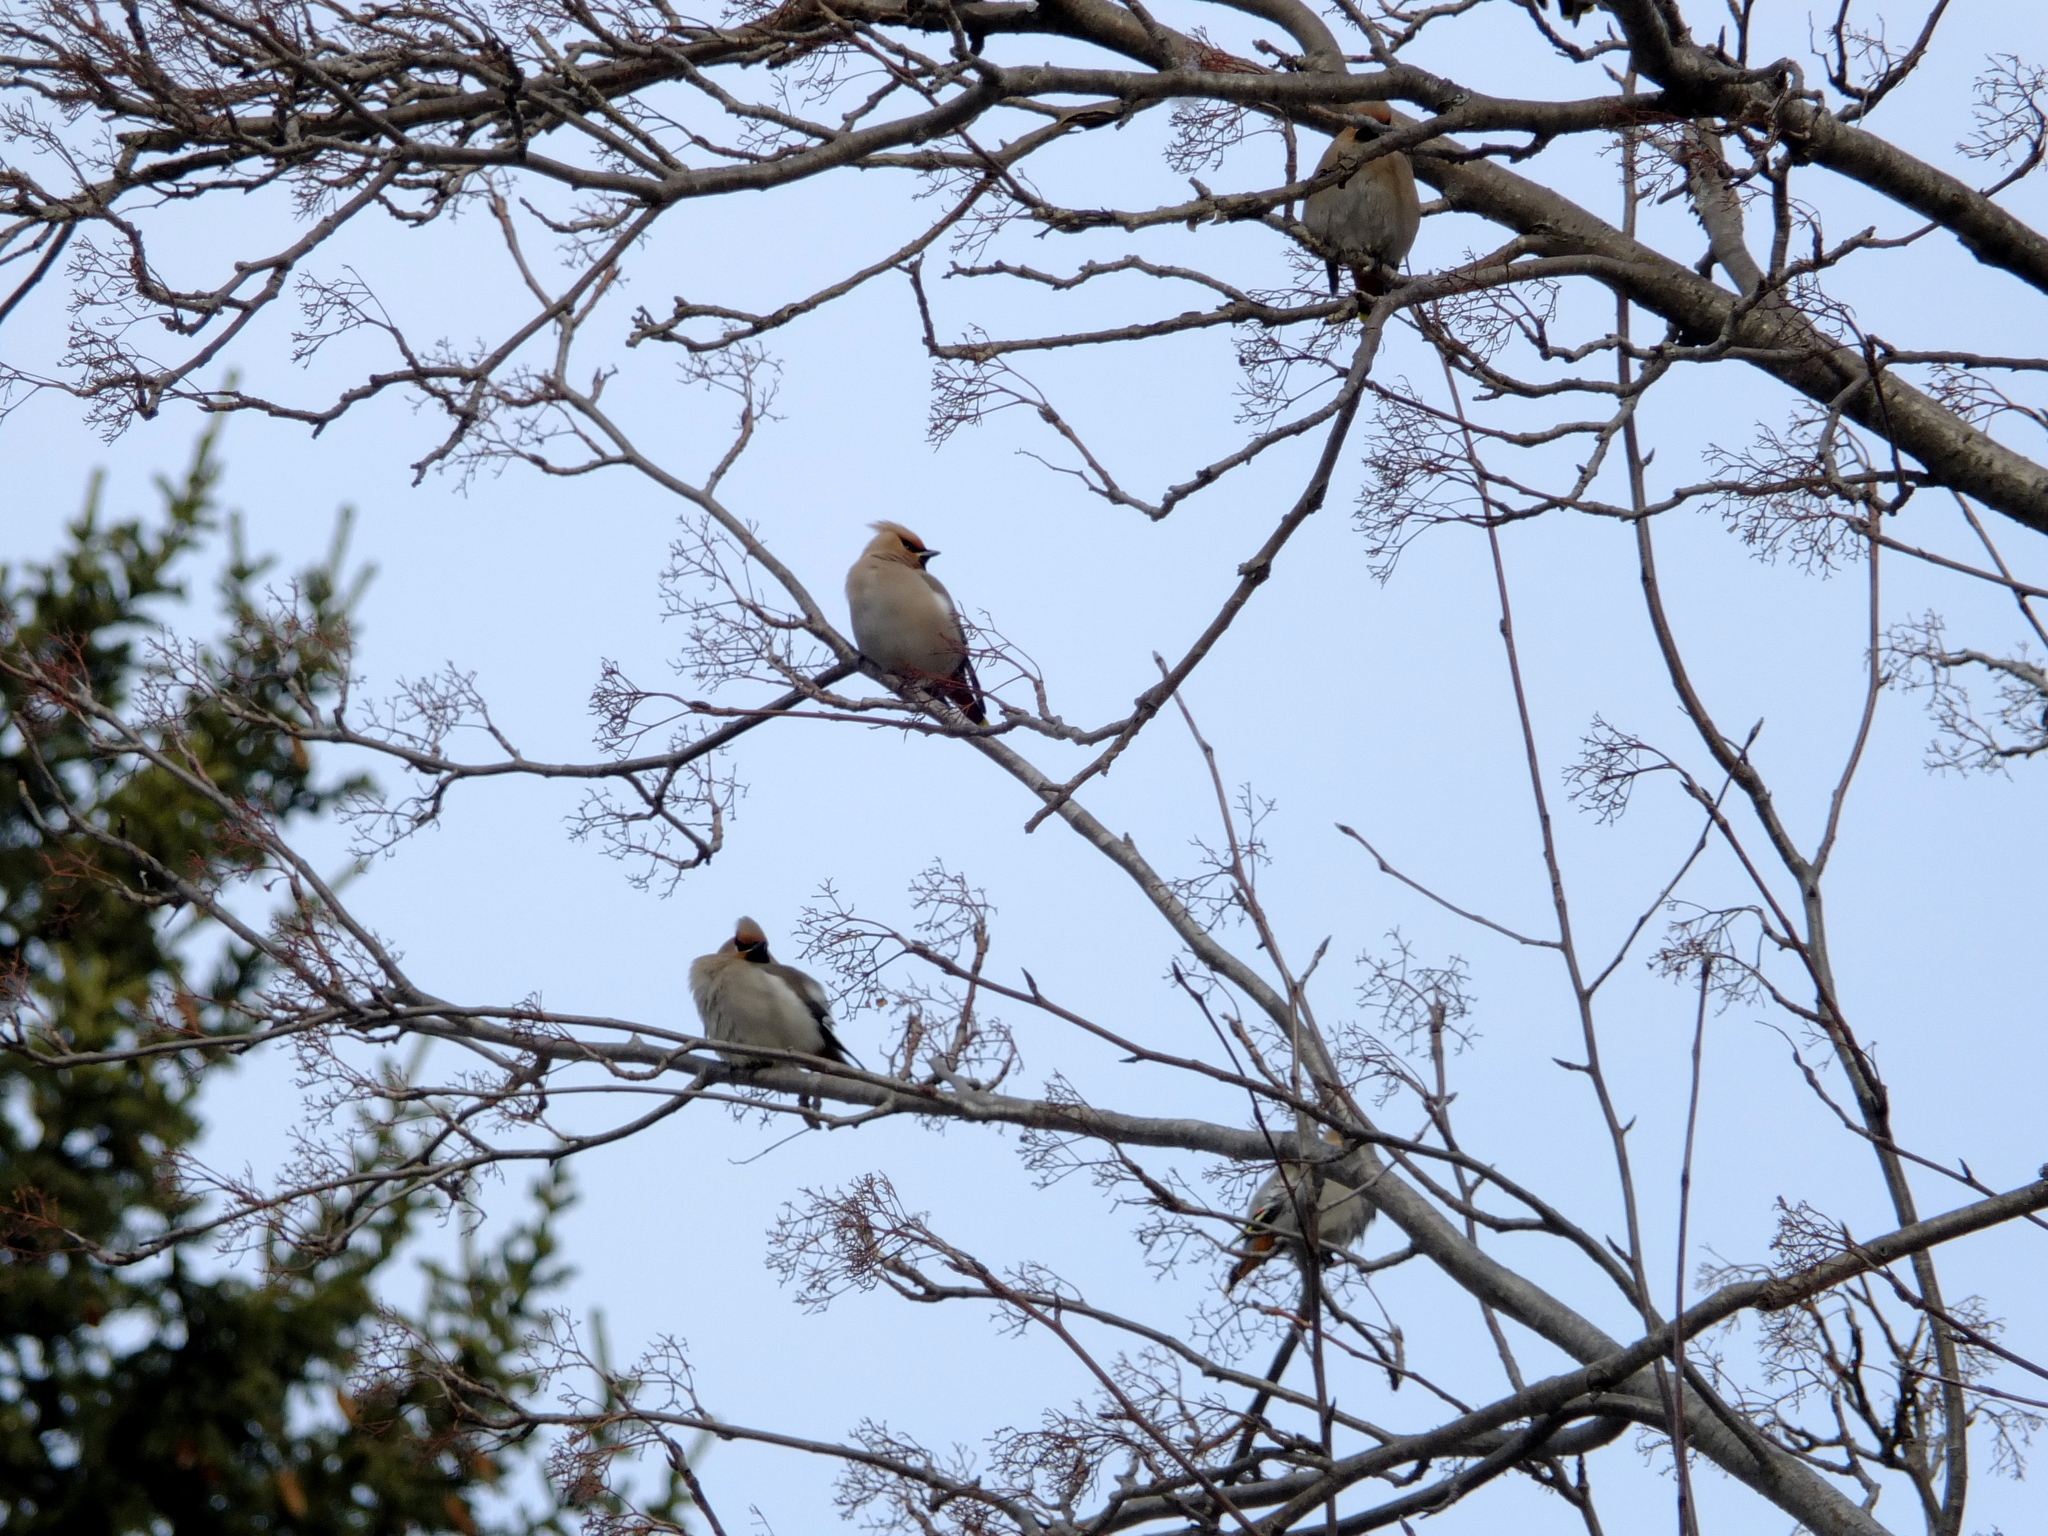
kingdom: Animalia
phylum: Chordata
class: Aves
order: Passeriformes
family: Bombycillidae
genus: Bombycilla
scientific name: Bombycilla garrulus
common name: Bohemian waxwing
